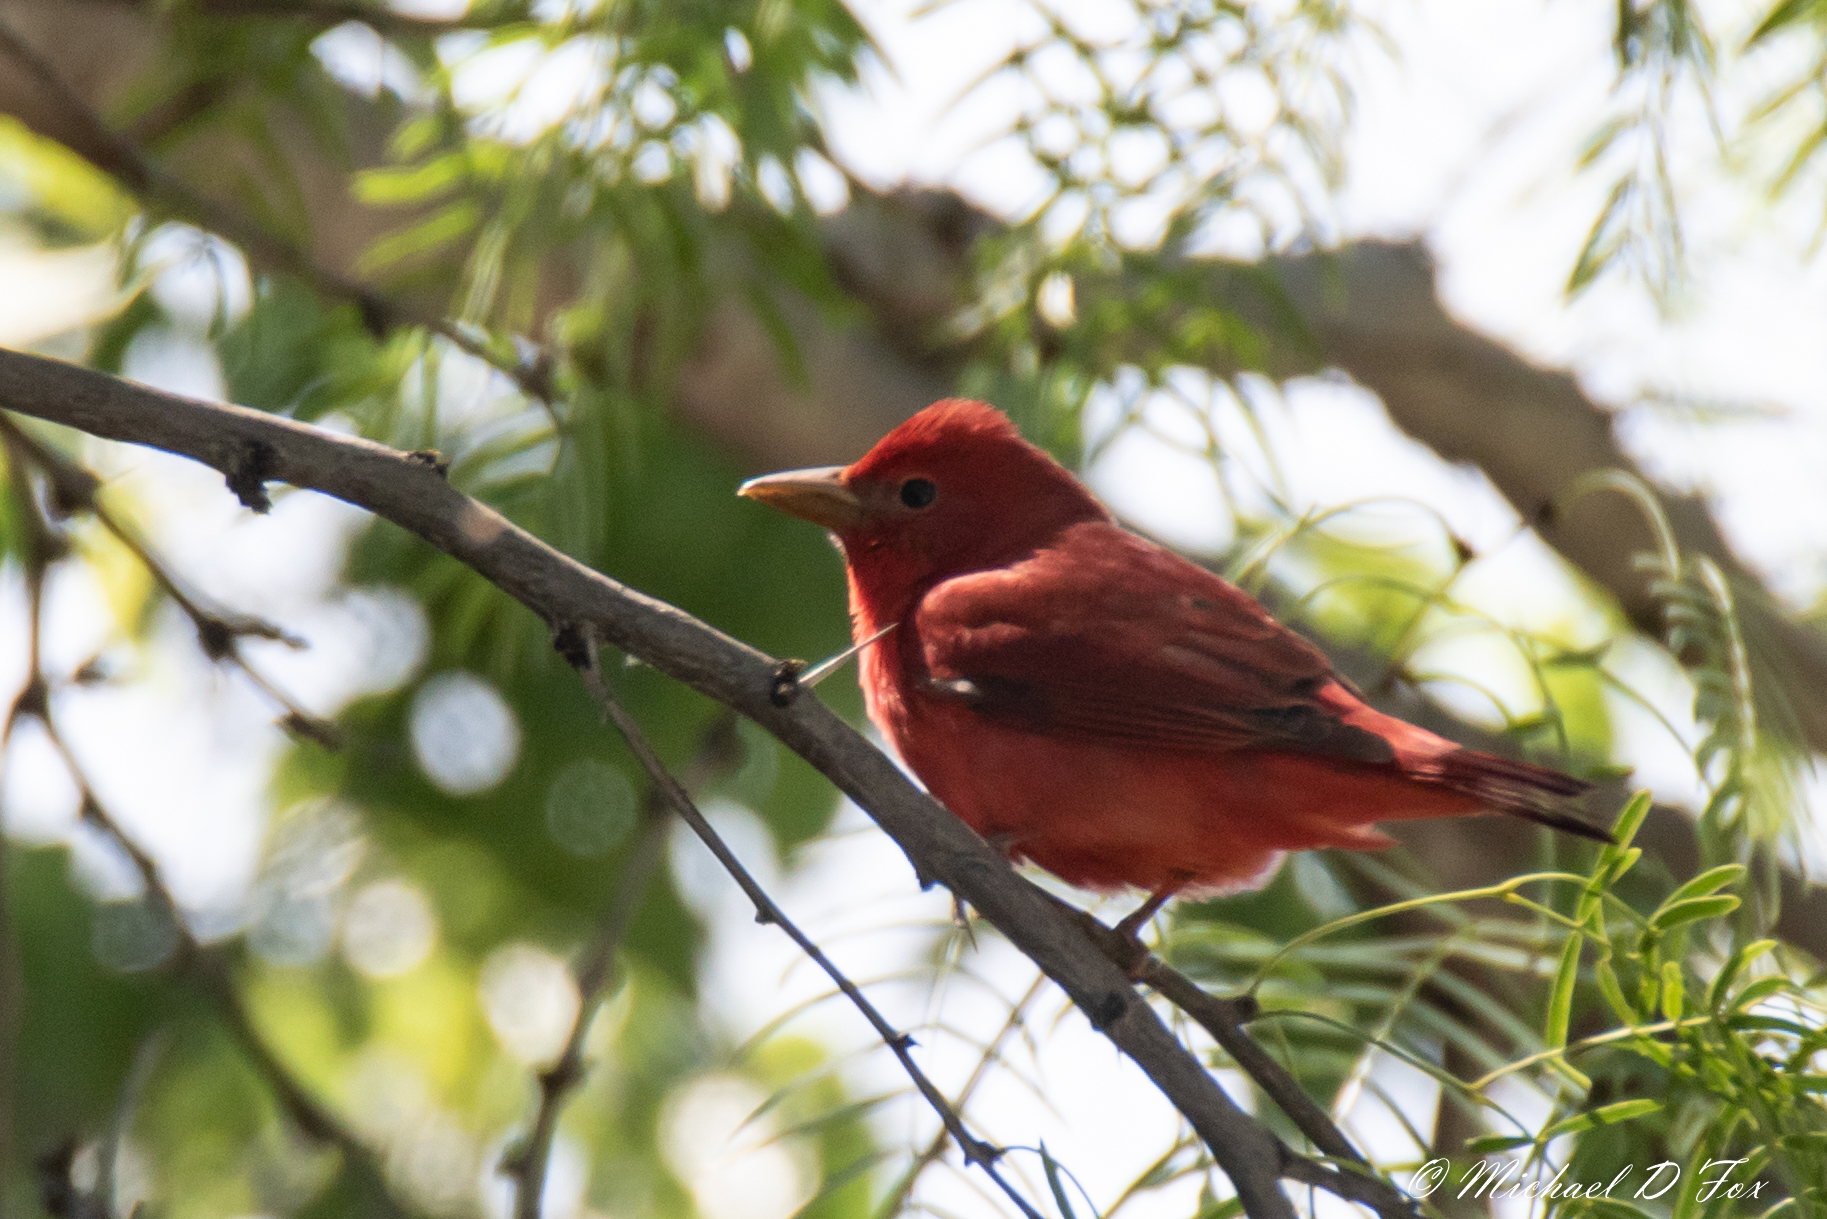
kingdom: Animalia
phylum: Chordata
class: Aves
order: Passeriformes
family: Cardinalidae
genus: Piranga
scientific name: Piranga rubra
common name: Summer tanager
